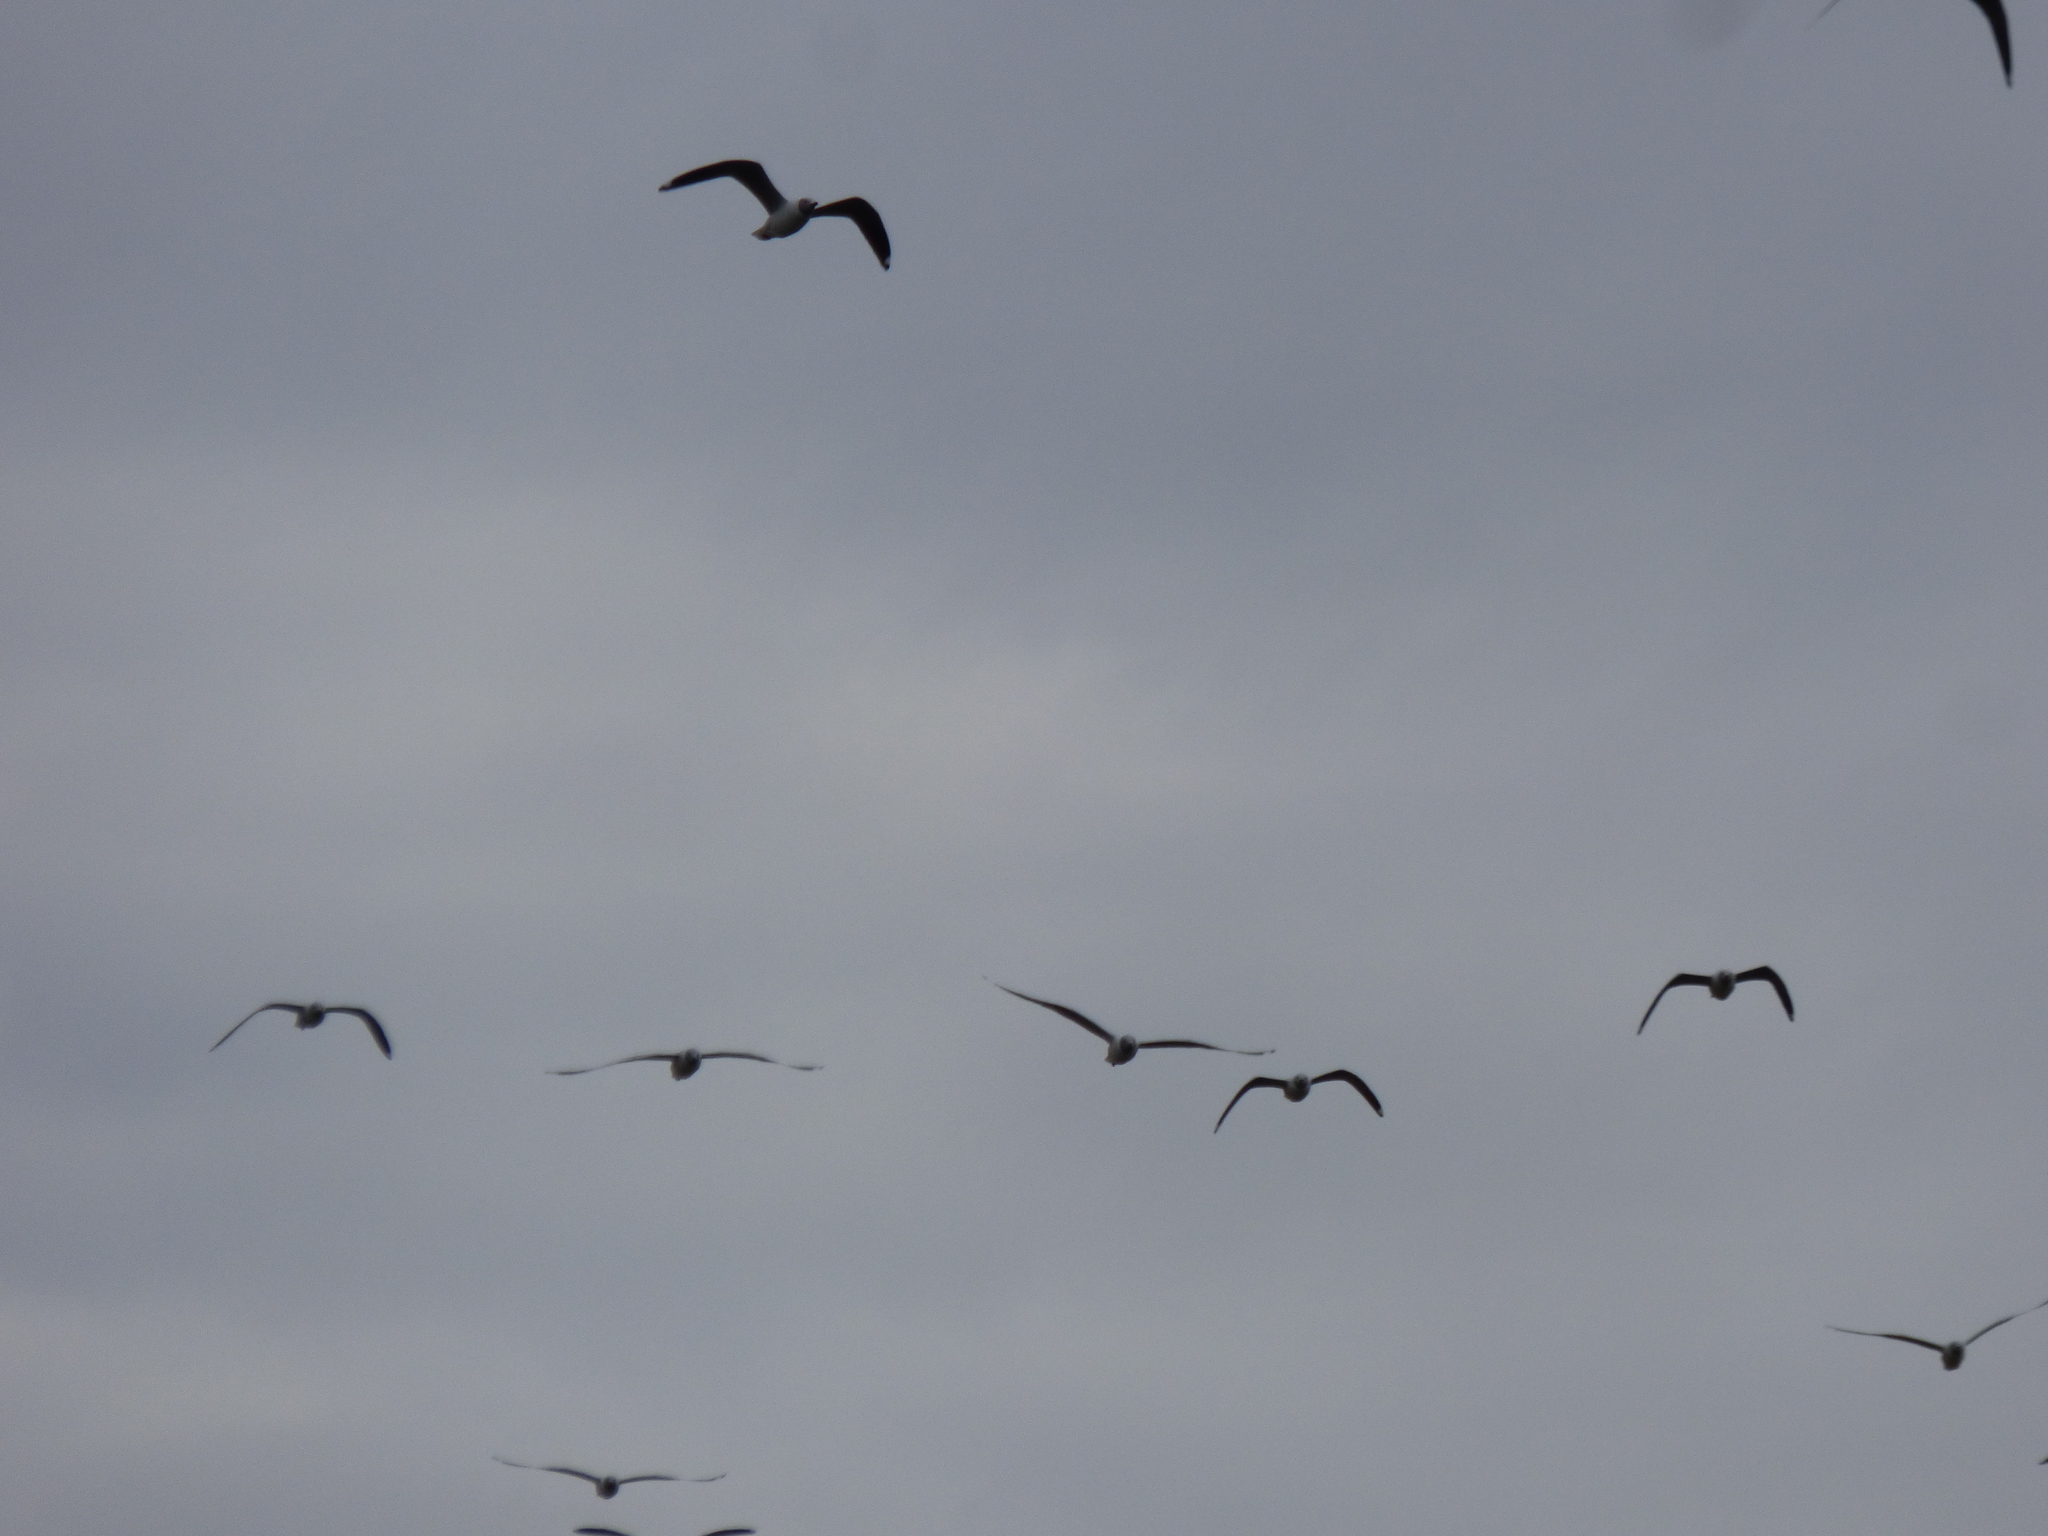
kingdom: Animalia
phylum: Chordata
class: Aves
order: Charadriiformes
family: Laridae
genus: Chroicocephalus
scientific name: Chroicocephalus cirrocephalus
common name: Grey-headed gull
